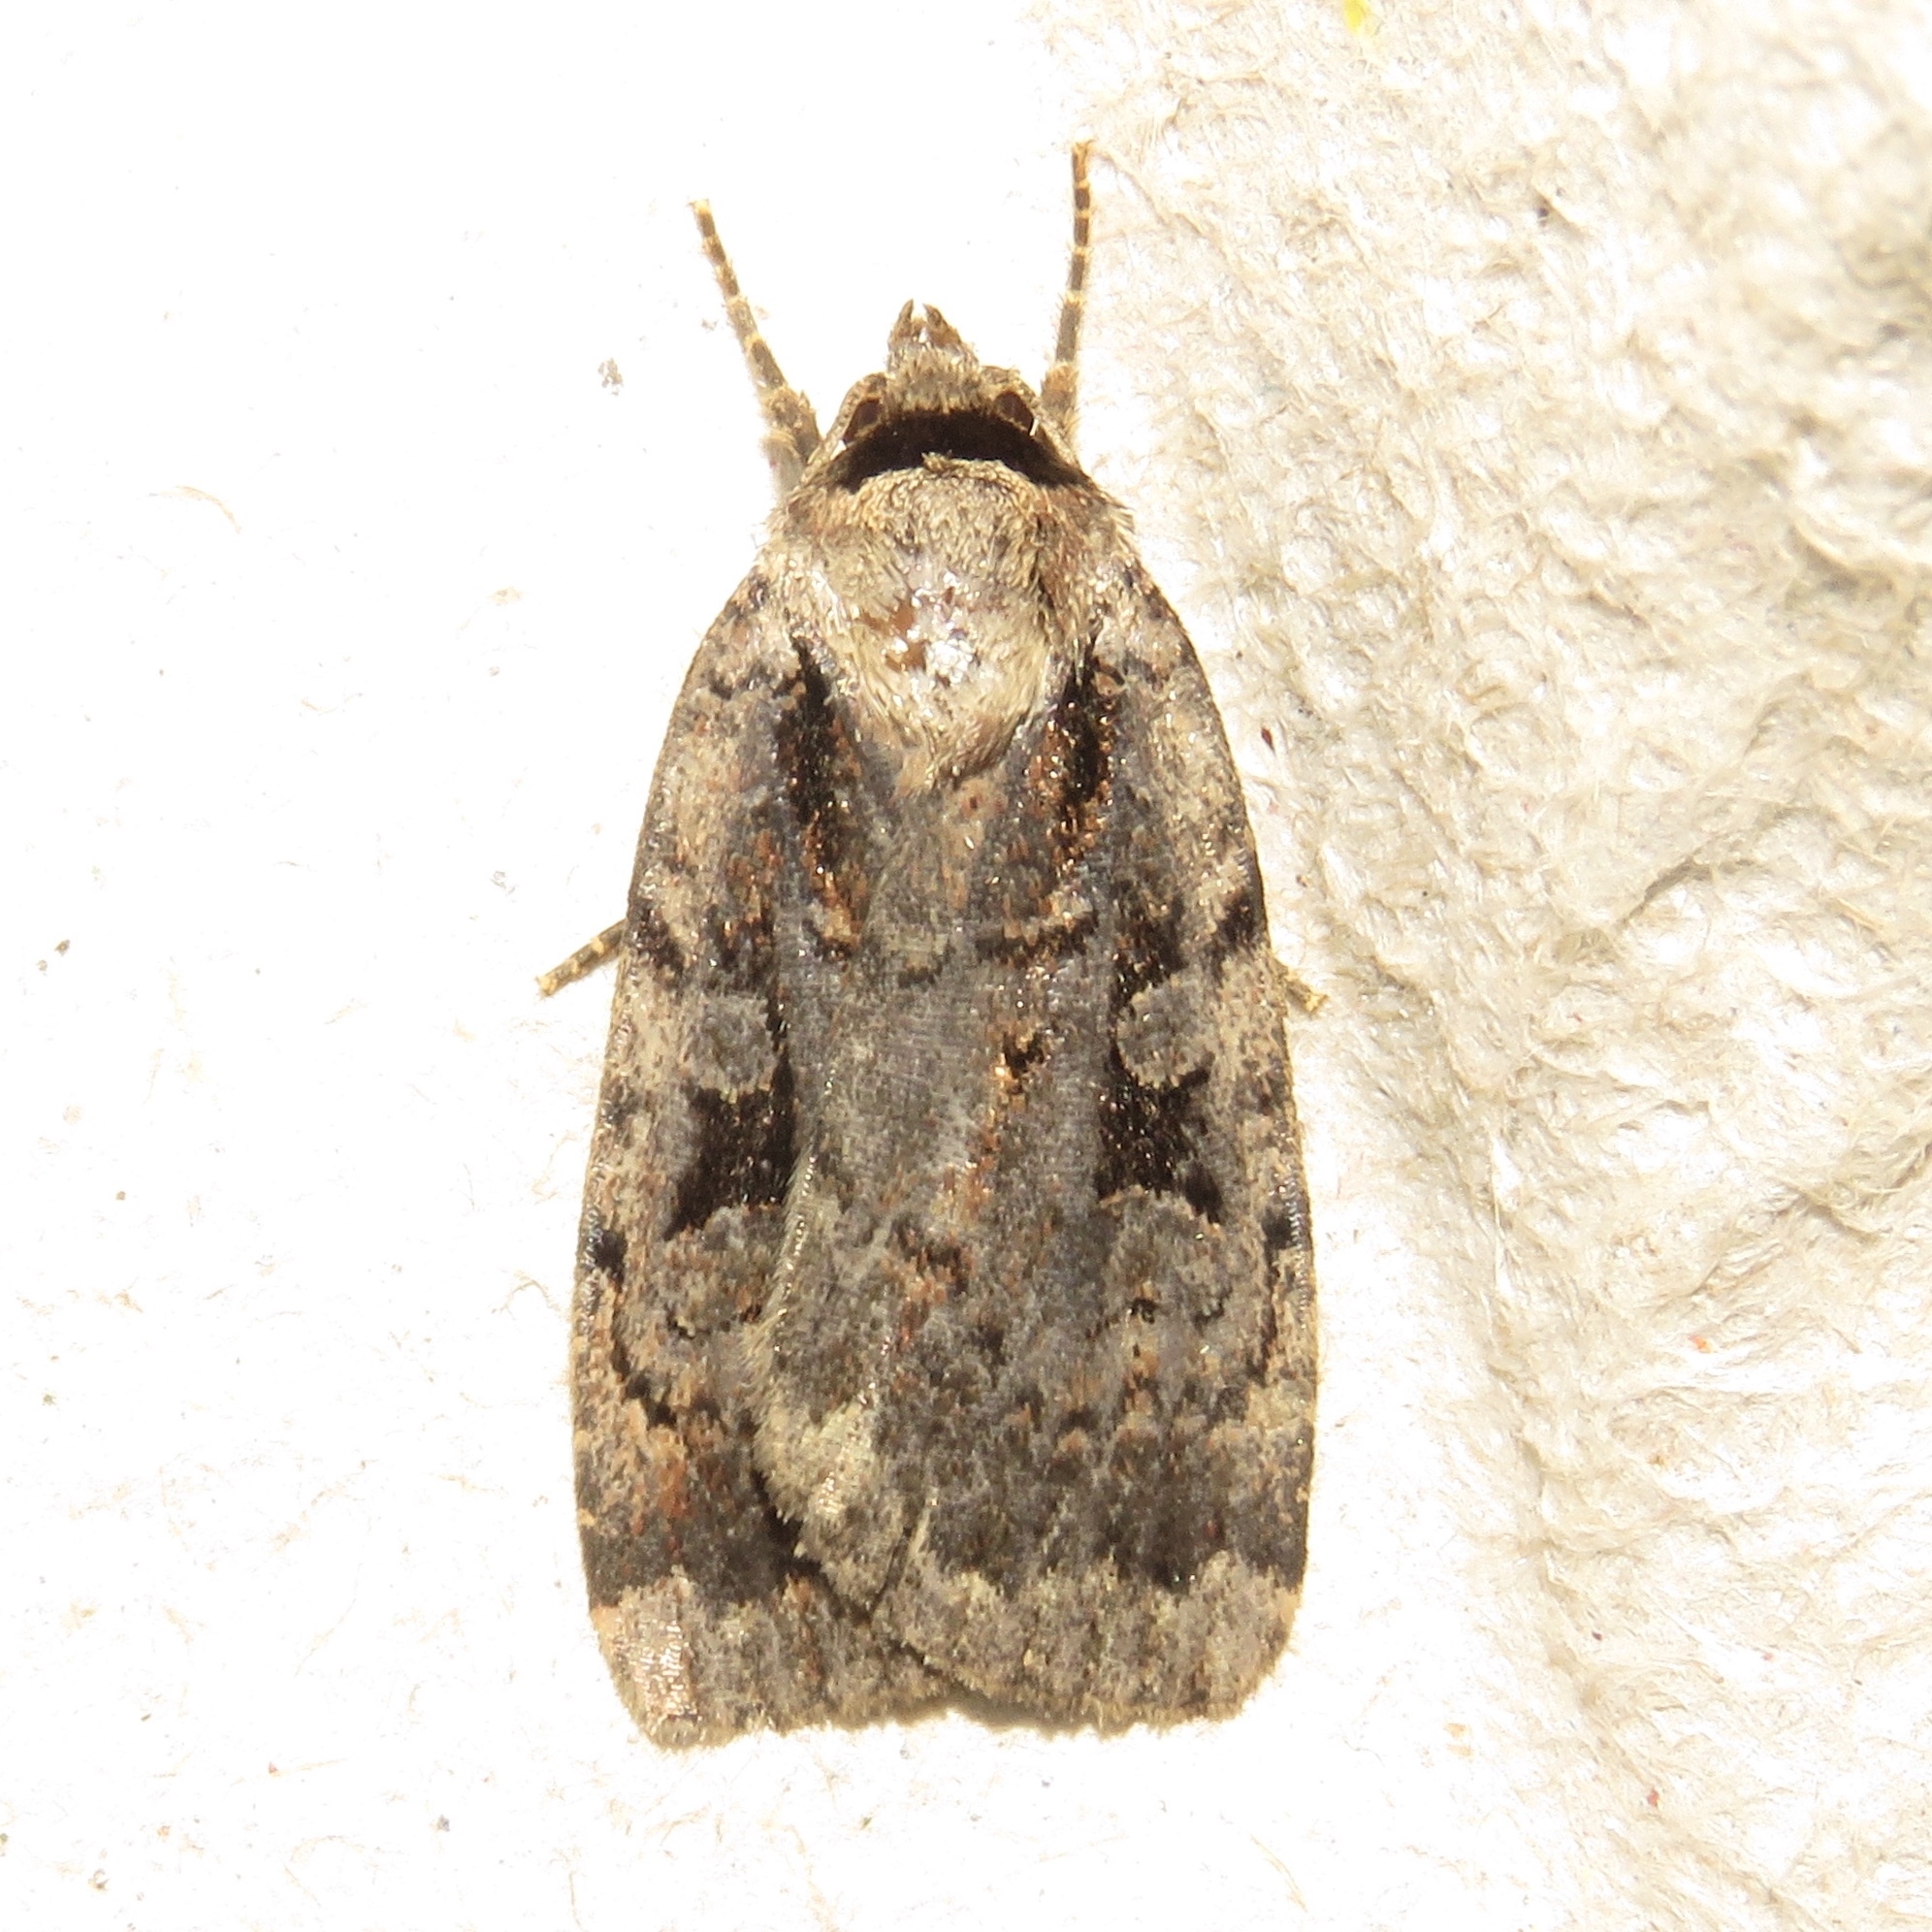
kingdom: Animalia
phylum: Arthropoda
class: Insecta
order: Lepidoptera
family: Noctuidae
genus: Eueretagrotis
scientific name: Eueretagrotis perattentus
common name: Two-spot dart moth
